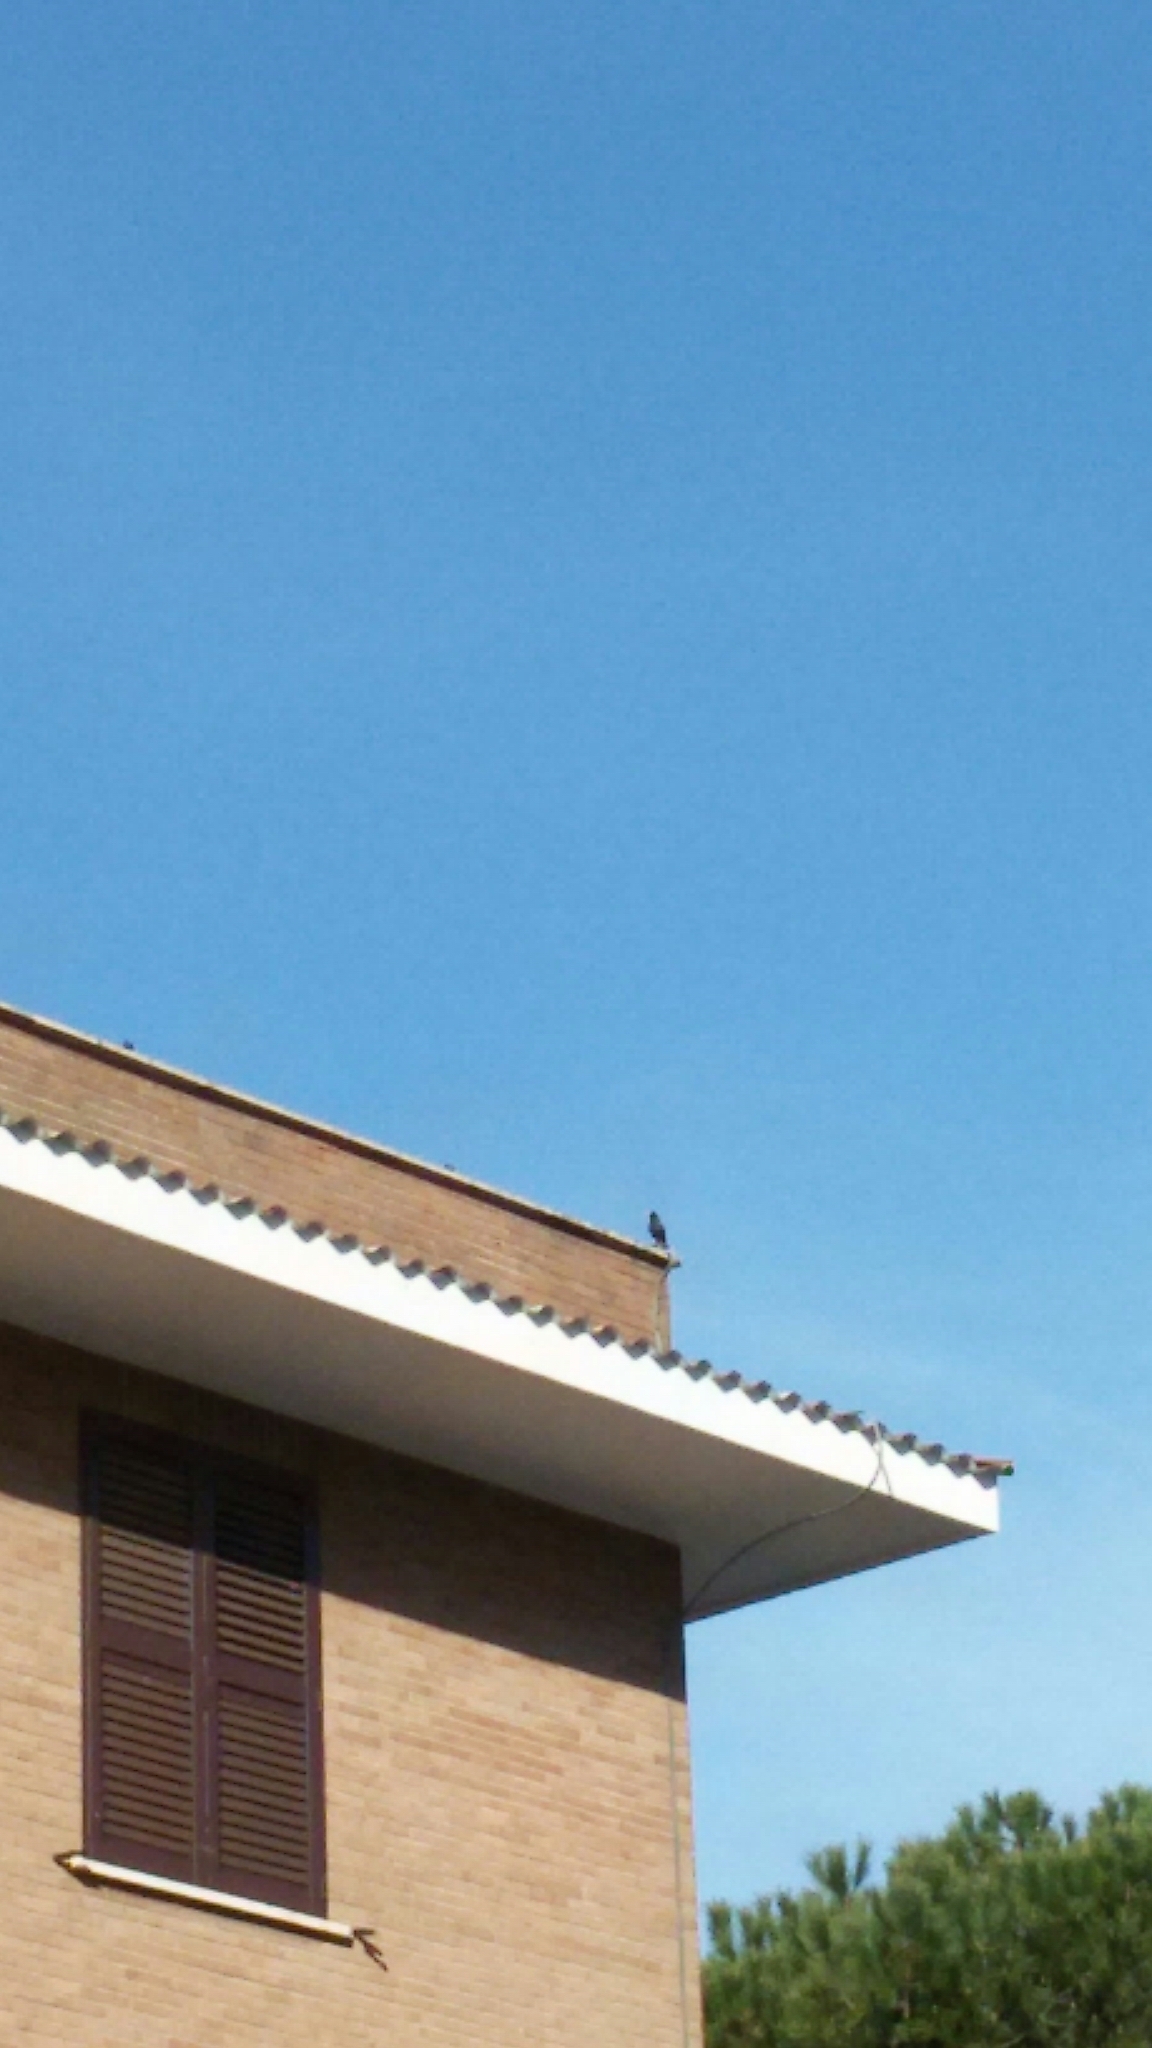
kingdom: Animalia
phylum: Chordata
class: Aves
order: Passeriformes
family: Sturnidae
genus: Sturnus
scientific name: Sturnus vulgaris
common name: Common starling
